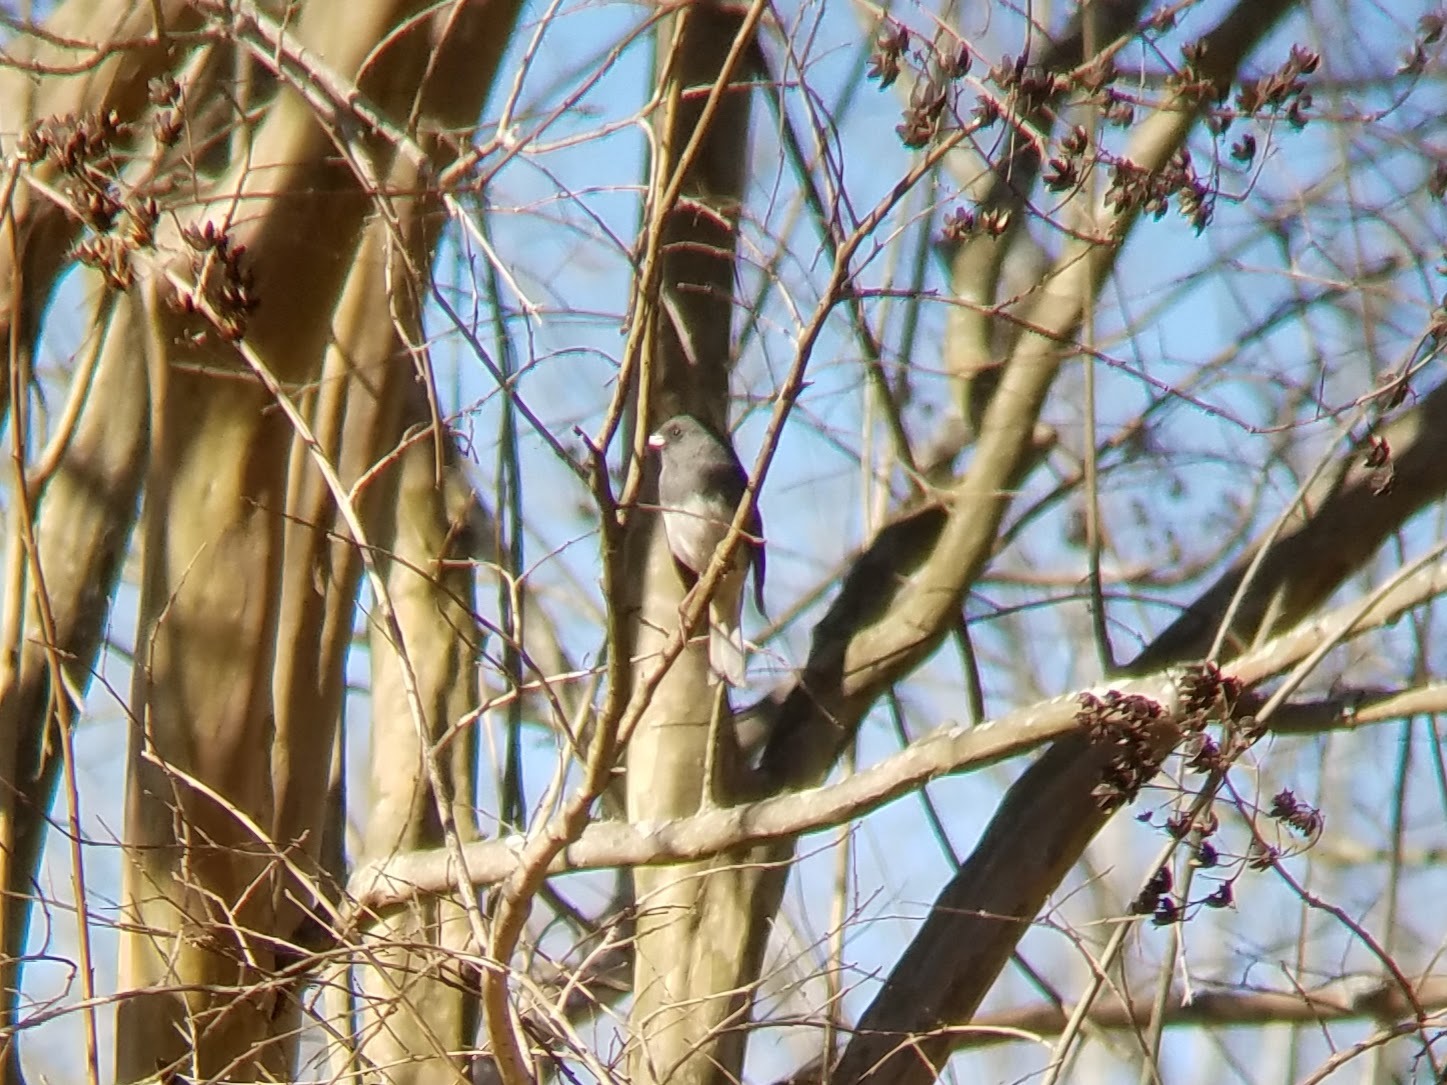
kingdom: Animalia
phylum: Chordata
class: Aves
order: Passeriformes
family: Passerellidae
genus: Junco
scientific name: Junco hyemalis
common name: Dark-eyed junco
